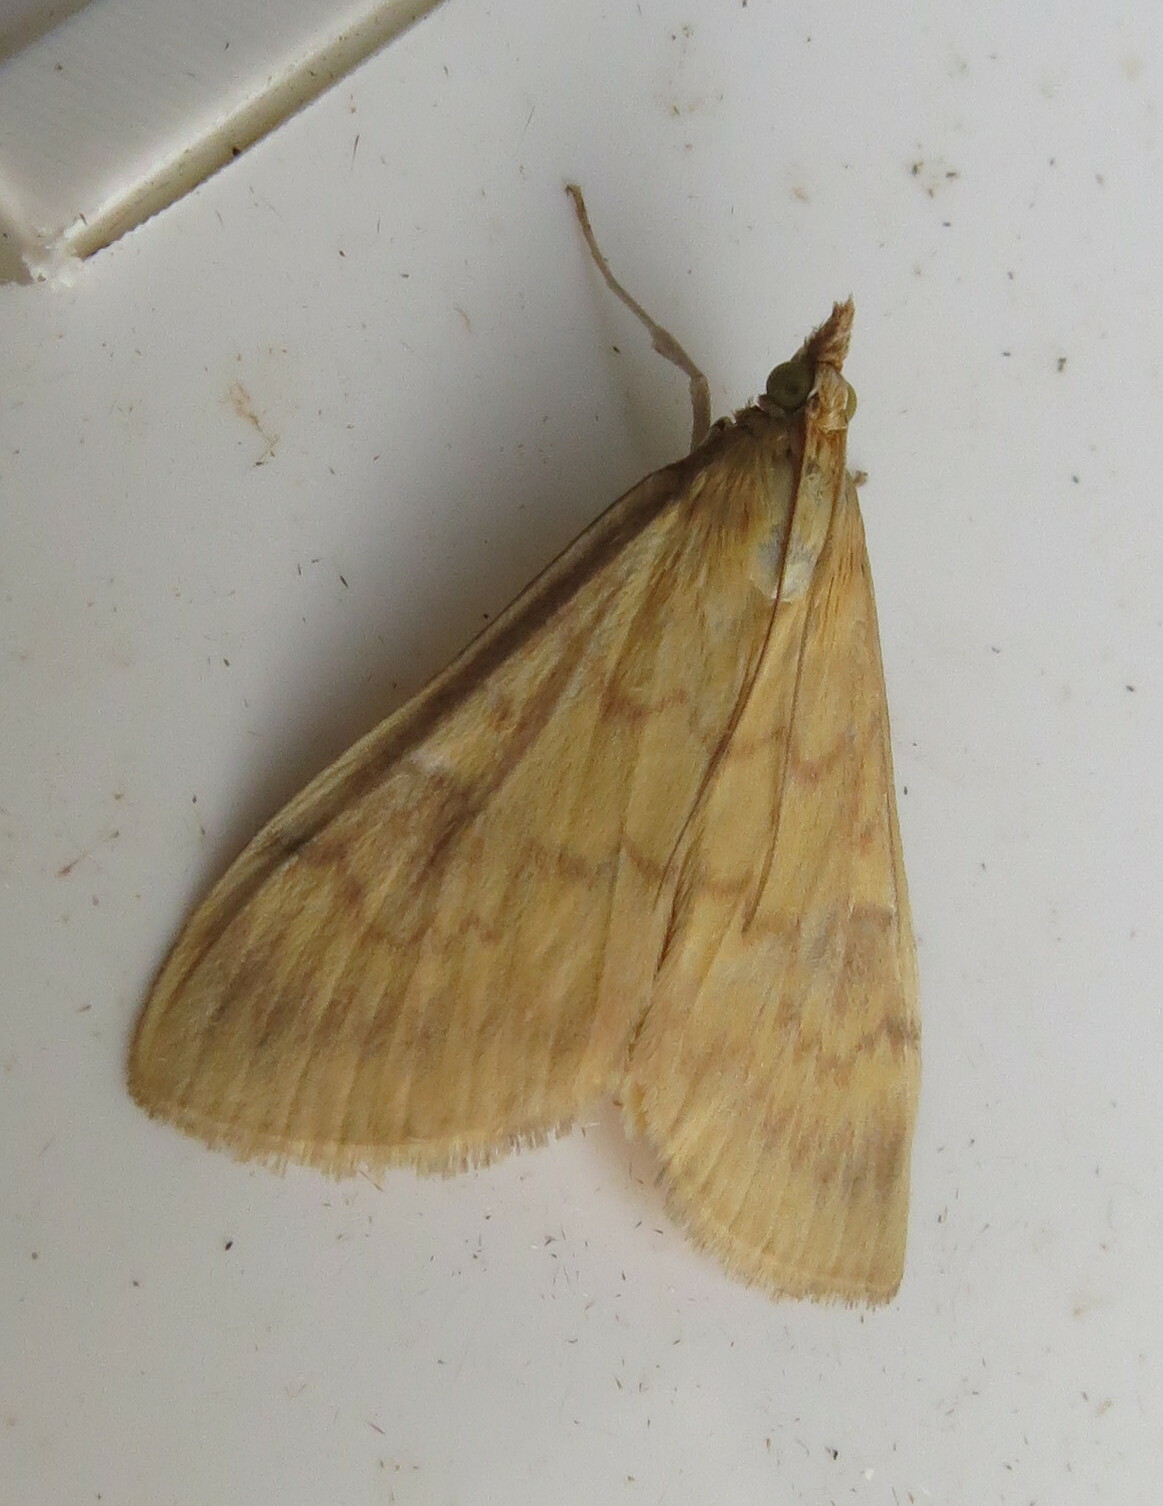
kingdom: Animalia
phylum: Arthropoda
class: Insecta
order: Lepidoptera
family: Crambidae
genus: Ostrinia
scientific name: Ostrinia nubilalis
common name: European corn borer
